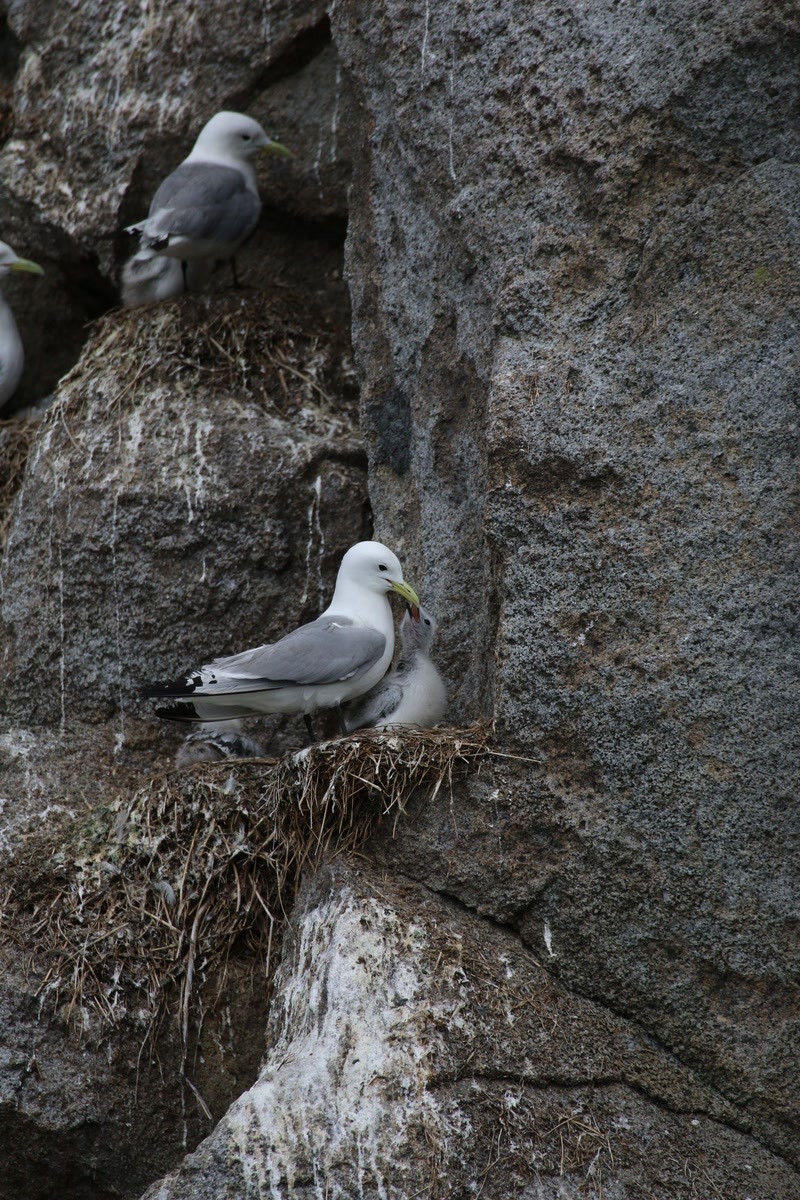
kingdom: Animalia
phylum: Chordata
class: Aves
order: Charadriiformes
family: Laridae
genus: Rissa
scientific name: Rissa tridactyla
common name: Black-legged kittiwake
